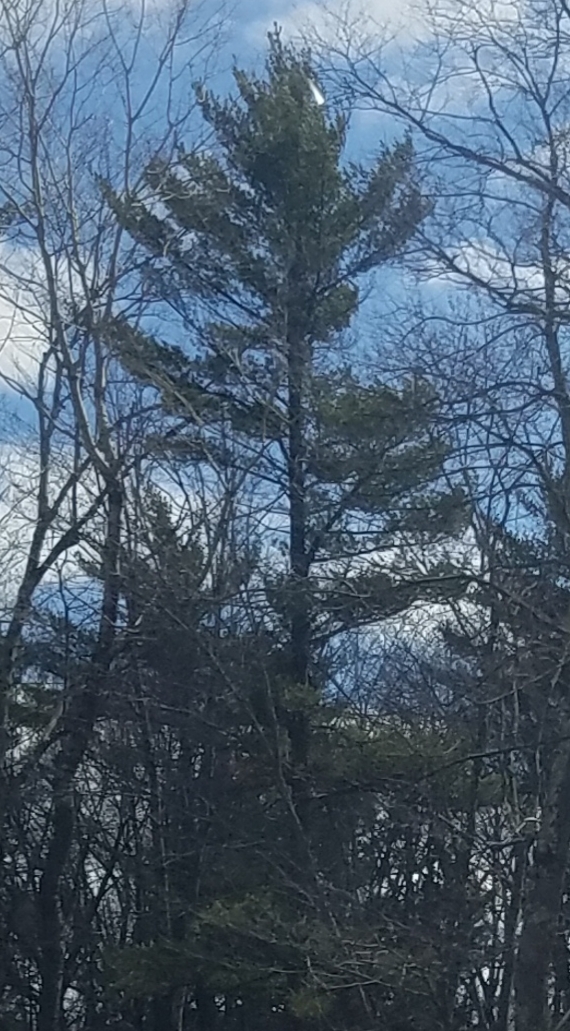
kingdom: Plantae
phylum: Tracheophyta
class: Pinopsida
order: Pinales
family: Pinaceae
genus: Pinus
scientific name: Pinus strobus
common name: Weymouth pine
